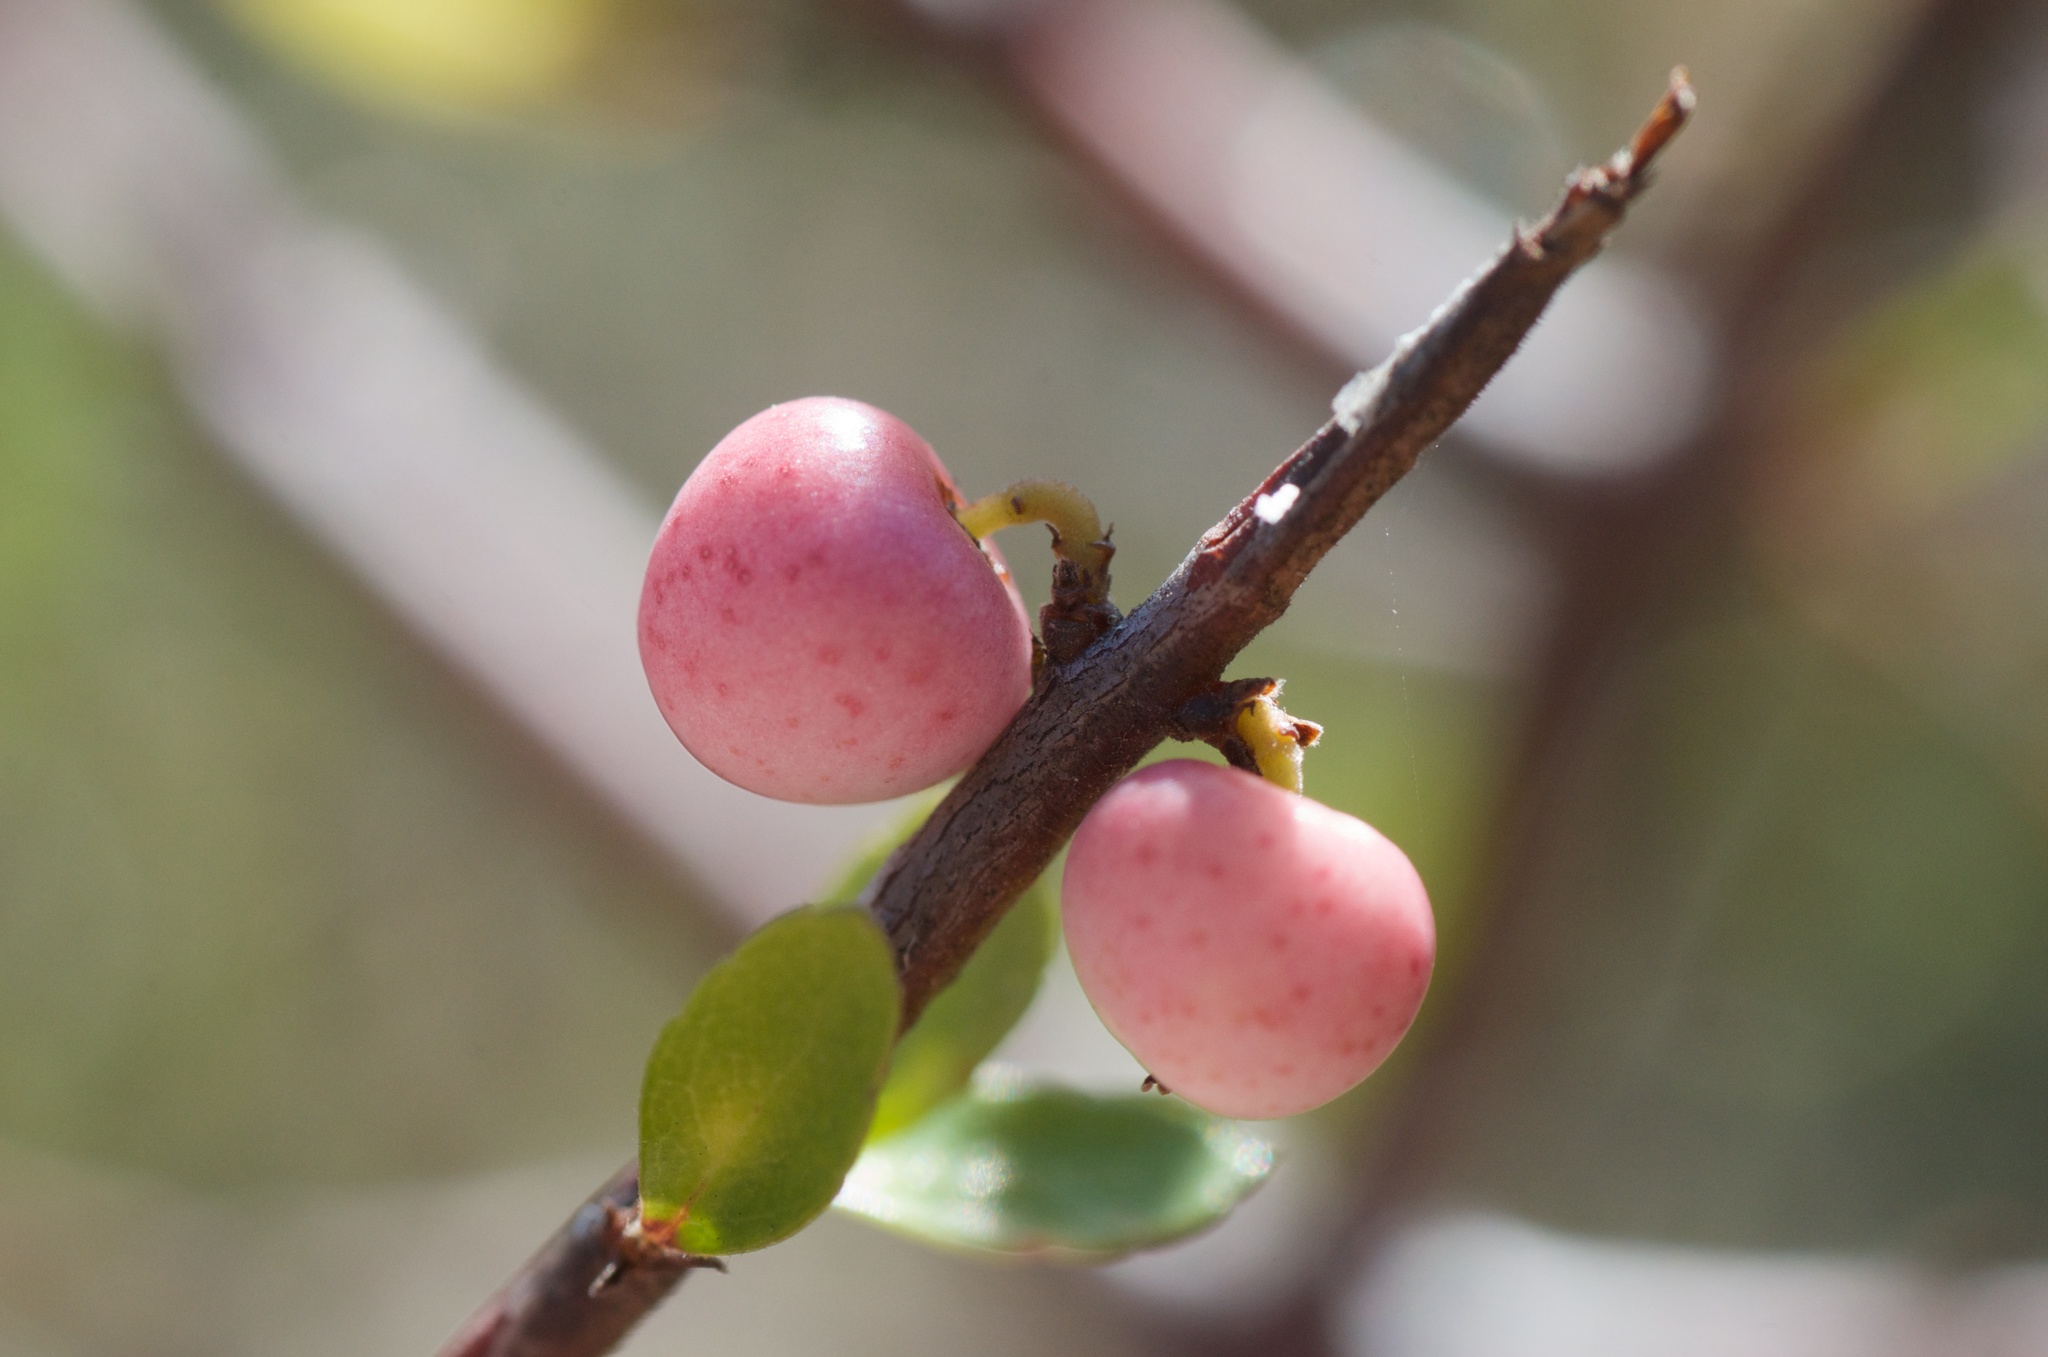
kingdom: Plantae
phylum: Tracheophyta
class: Magnoliopsida
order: Oxalidales
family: Elaeocarpaceae
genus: Aristotelia
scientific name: Aristotelia fruticosa
